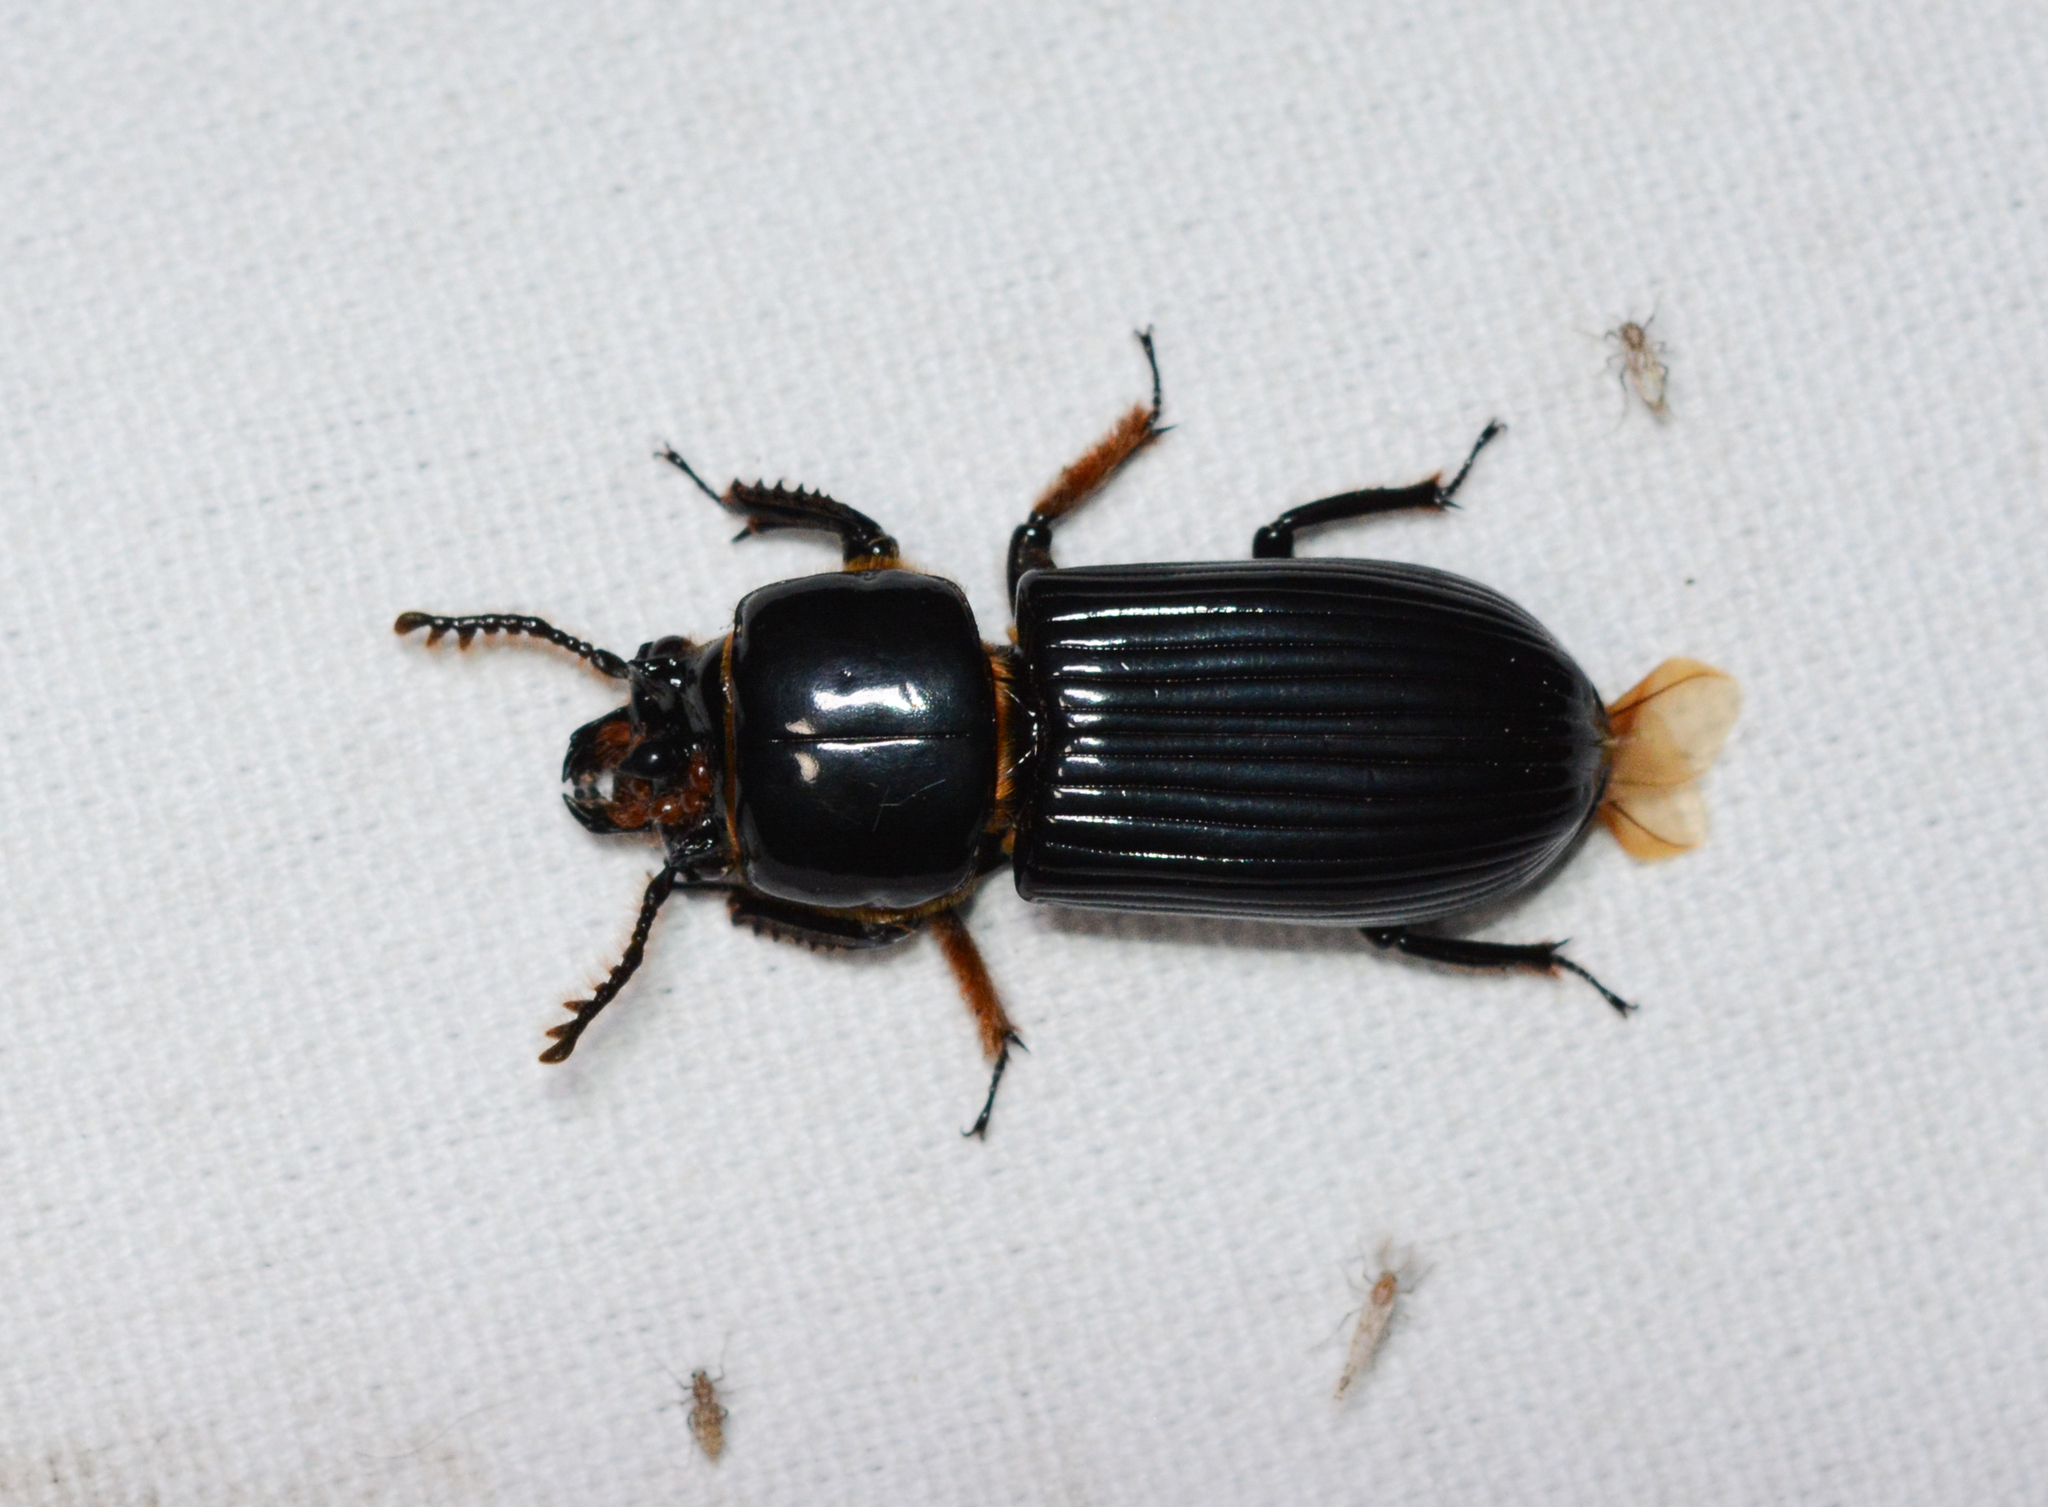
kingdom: Animalia
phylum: Arthropoda
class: Insecta
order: Coleoptera
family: Passalidae
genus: Odontotaenius
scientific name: Odontotaenius disjunctus
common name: Patent leather beetle
